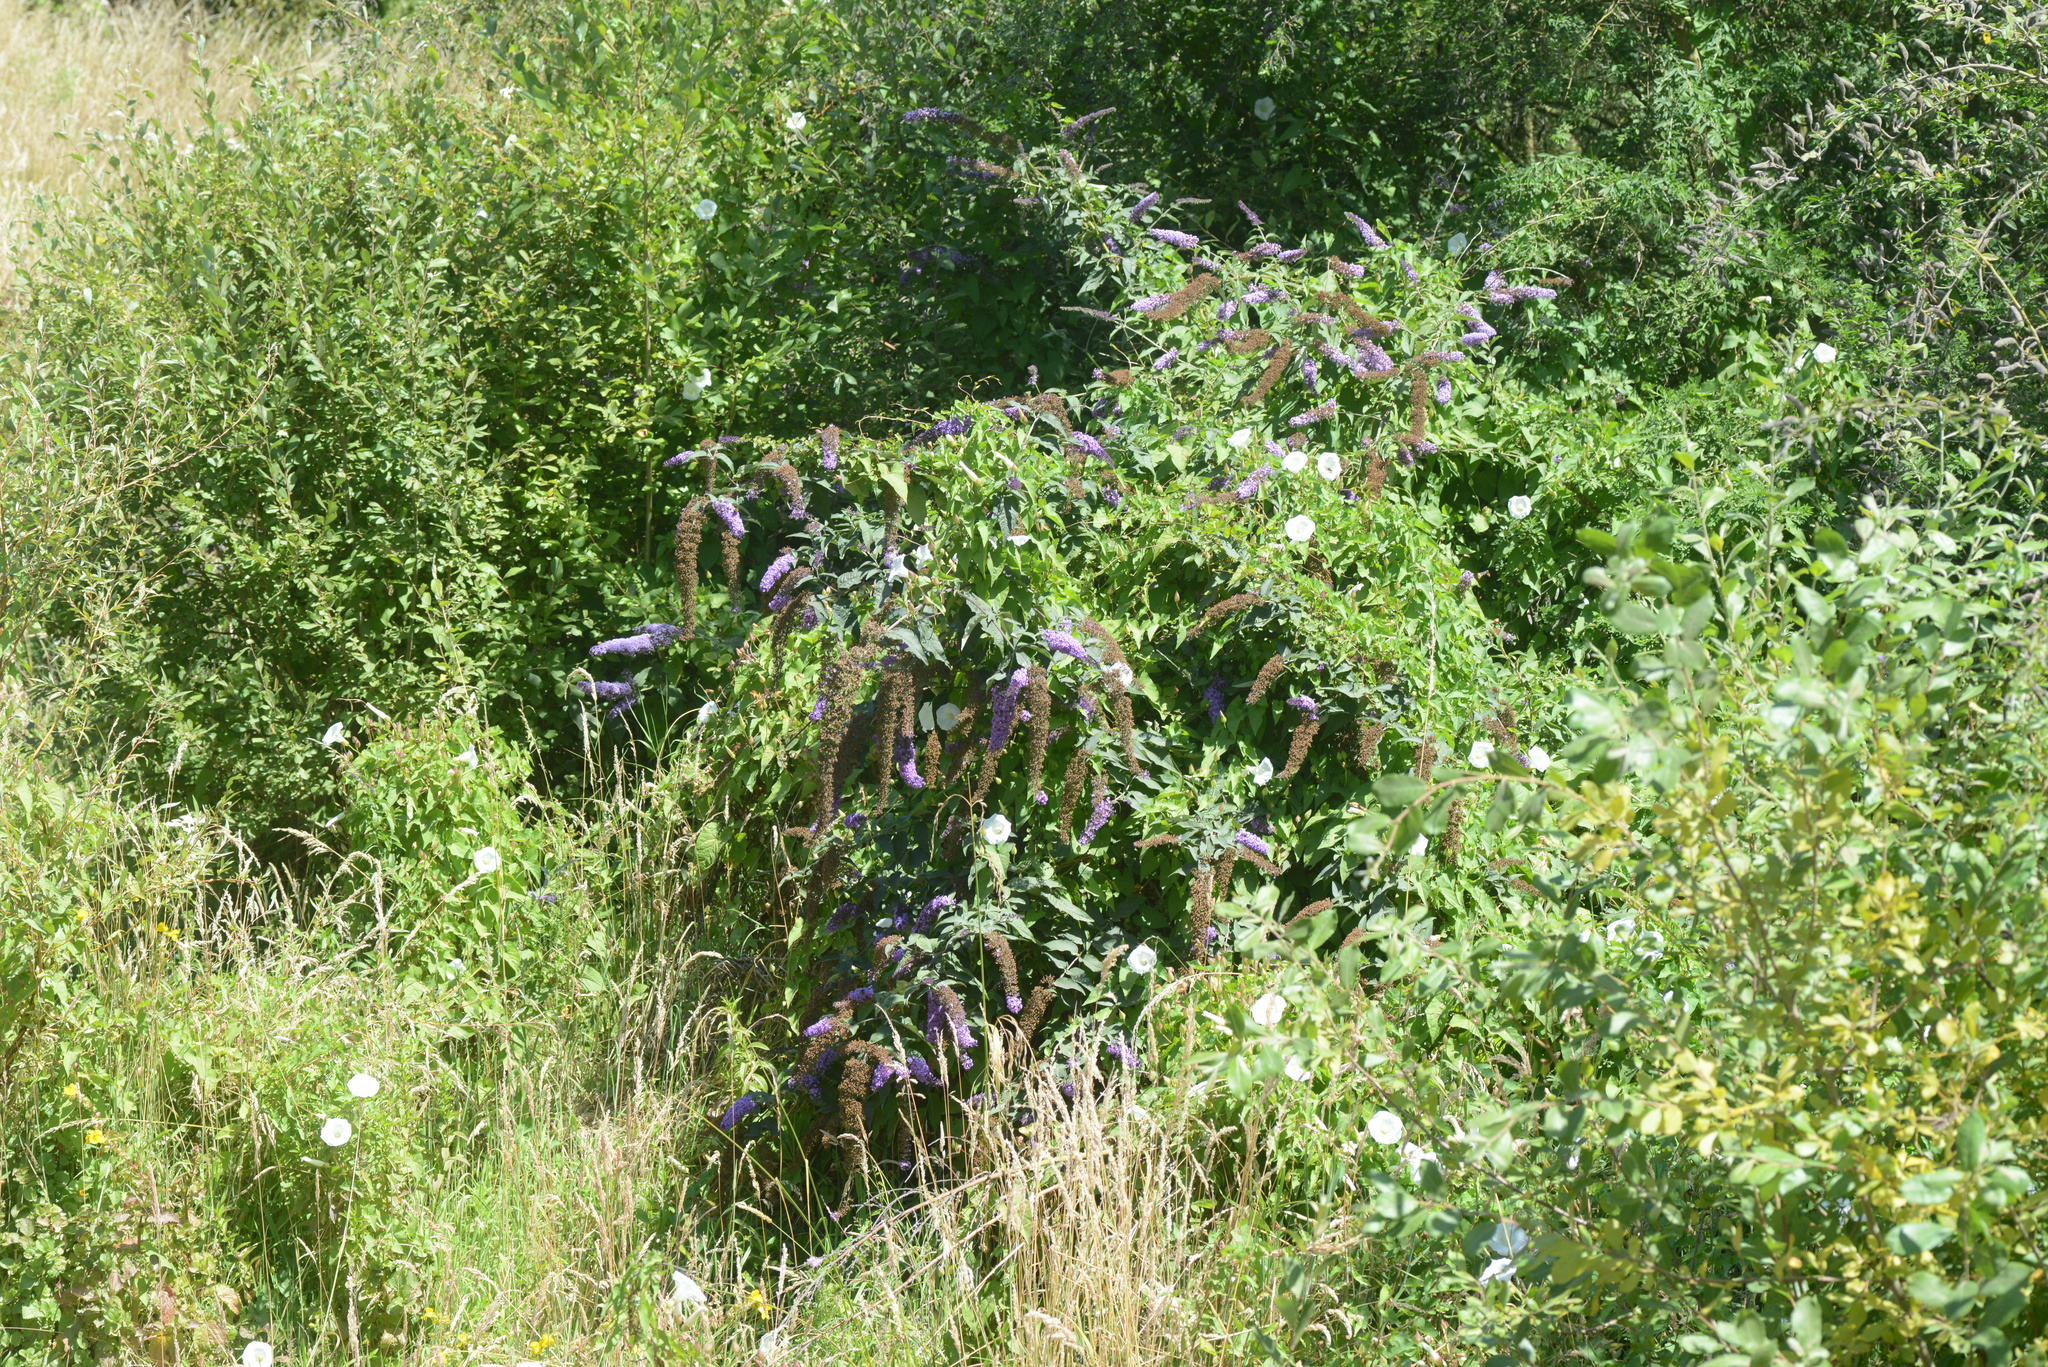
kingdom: Plantae
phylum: Tracheophyta
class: Magnoliopsida
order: Lamiales
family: Scrophulariaceae
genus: Buddleja
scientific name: Buddleja davidii
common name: Butterfly-bush
